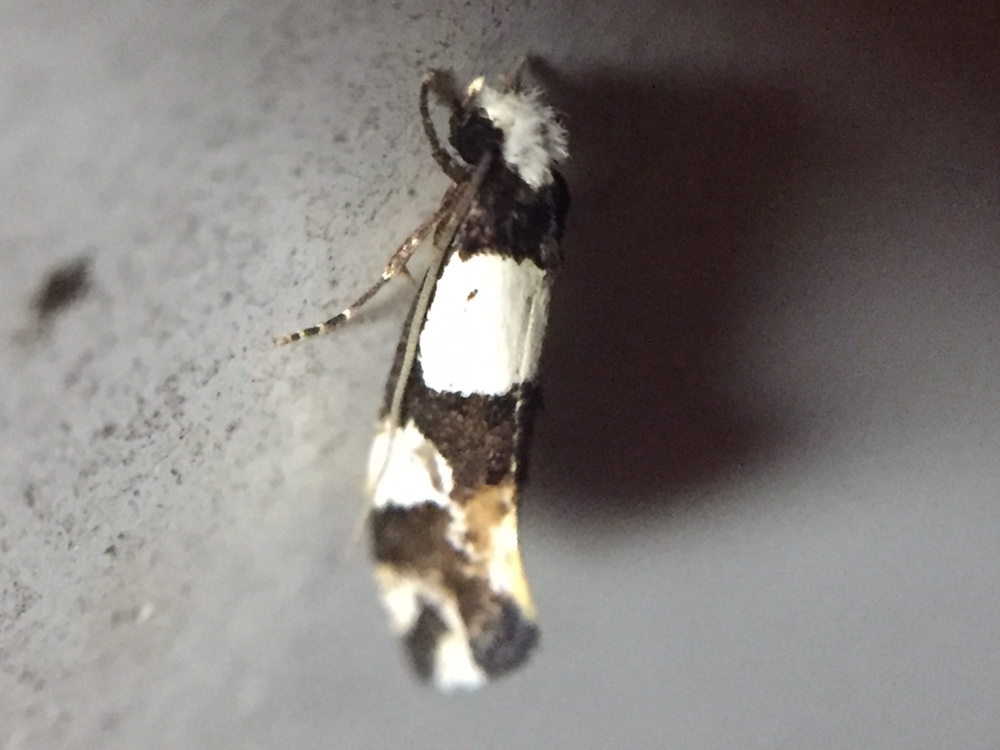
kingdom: Animalia
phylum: Arthropoda
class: Insecta
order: Lepidoptera
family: Tineidae
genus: Monopis
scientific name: Monopis icterogastra
